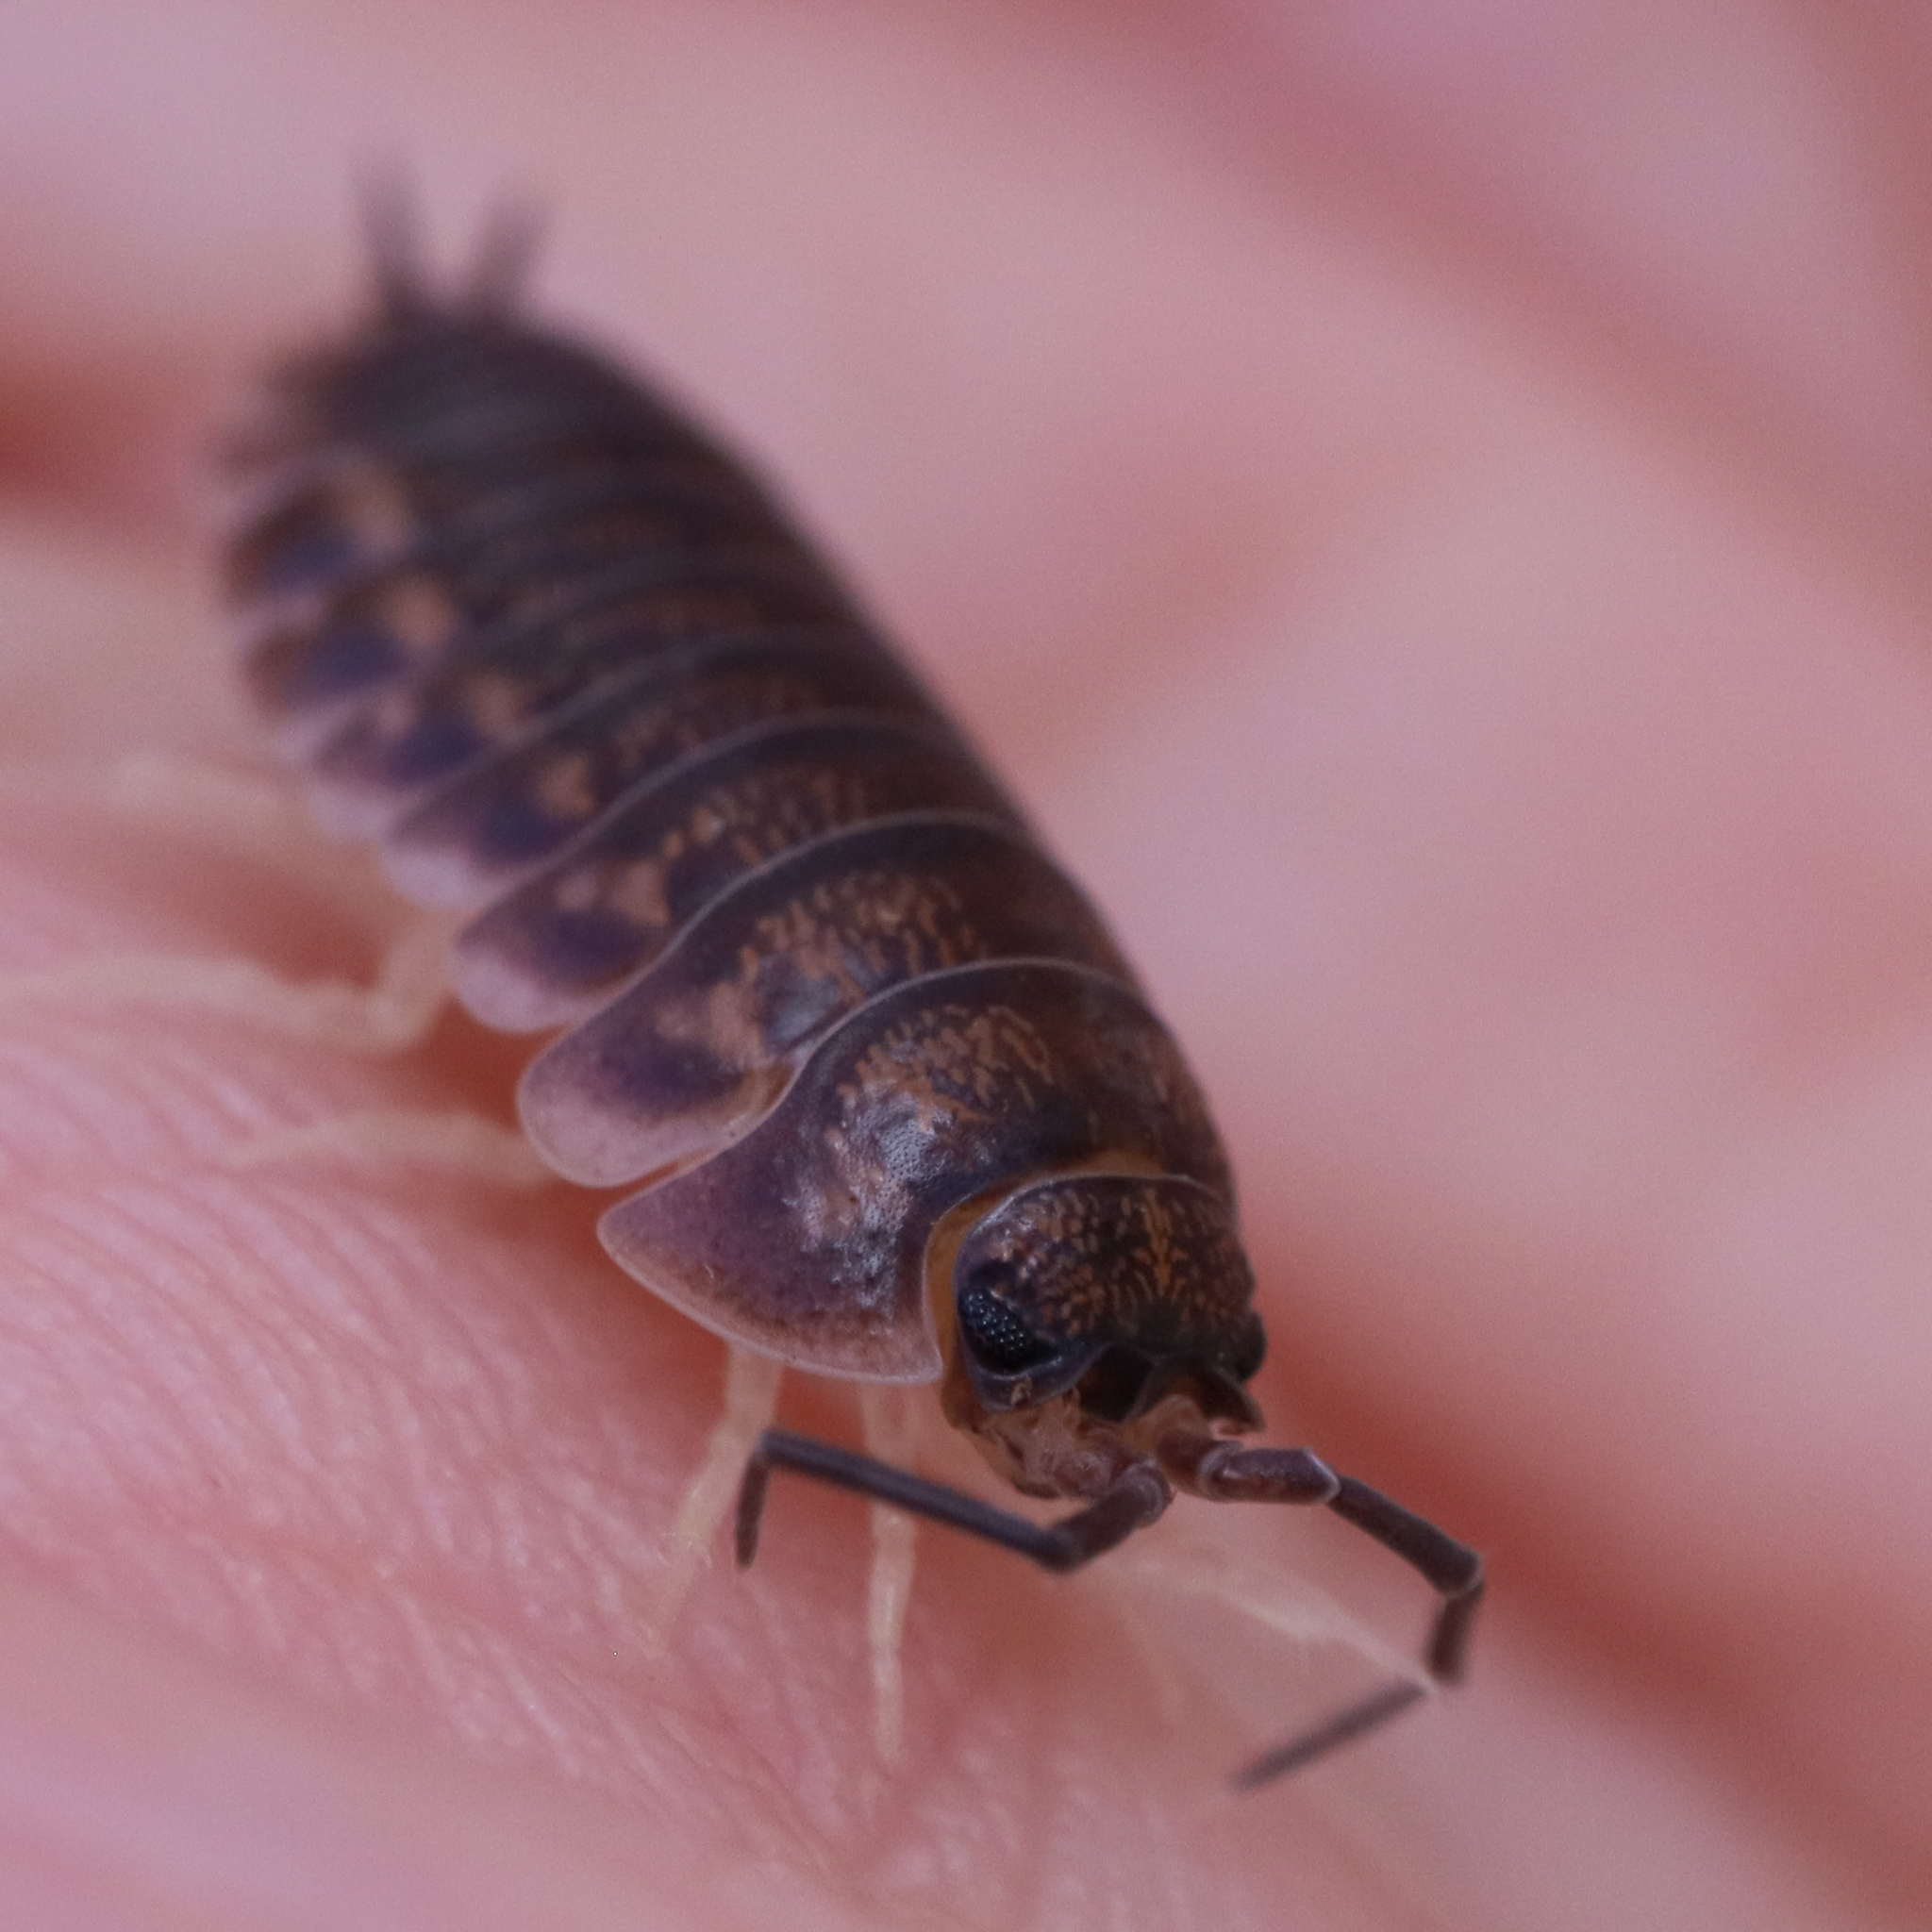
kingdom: Animalia
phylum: Arthropoda
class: Malacostraca
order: Isopoda
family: Cylisticidae
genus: Cylisticus
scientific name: Cylisticus convexus
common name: Curly woodlouse
